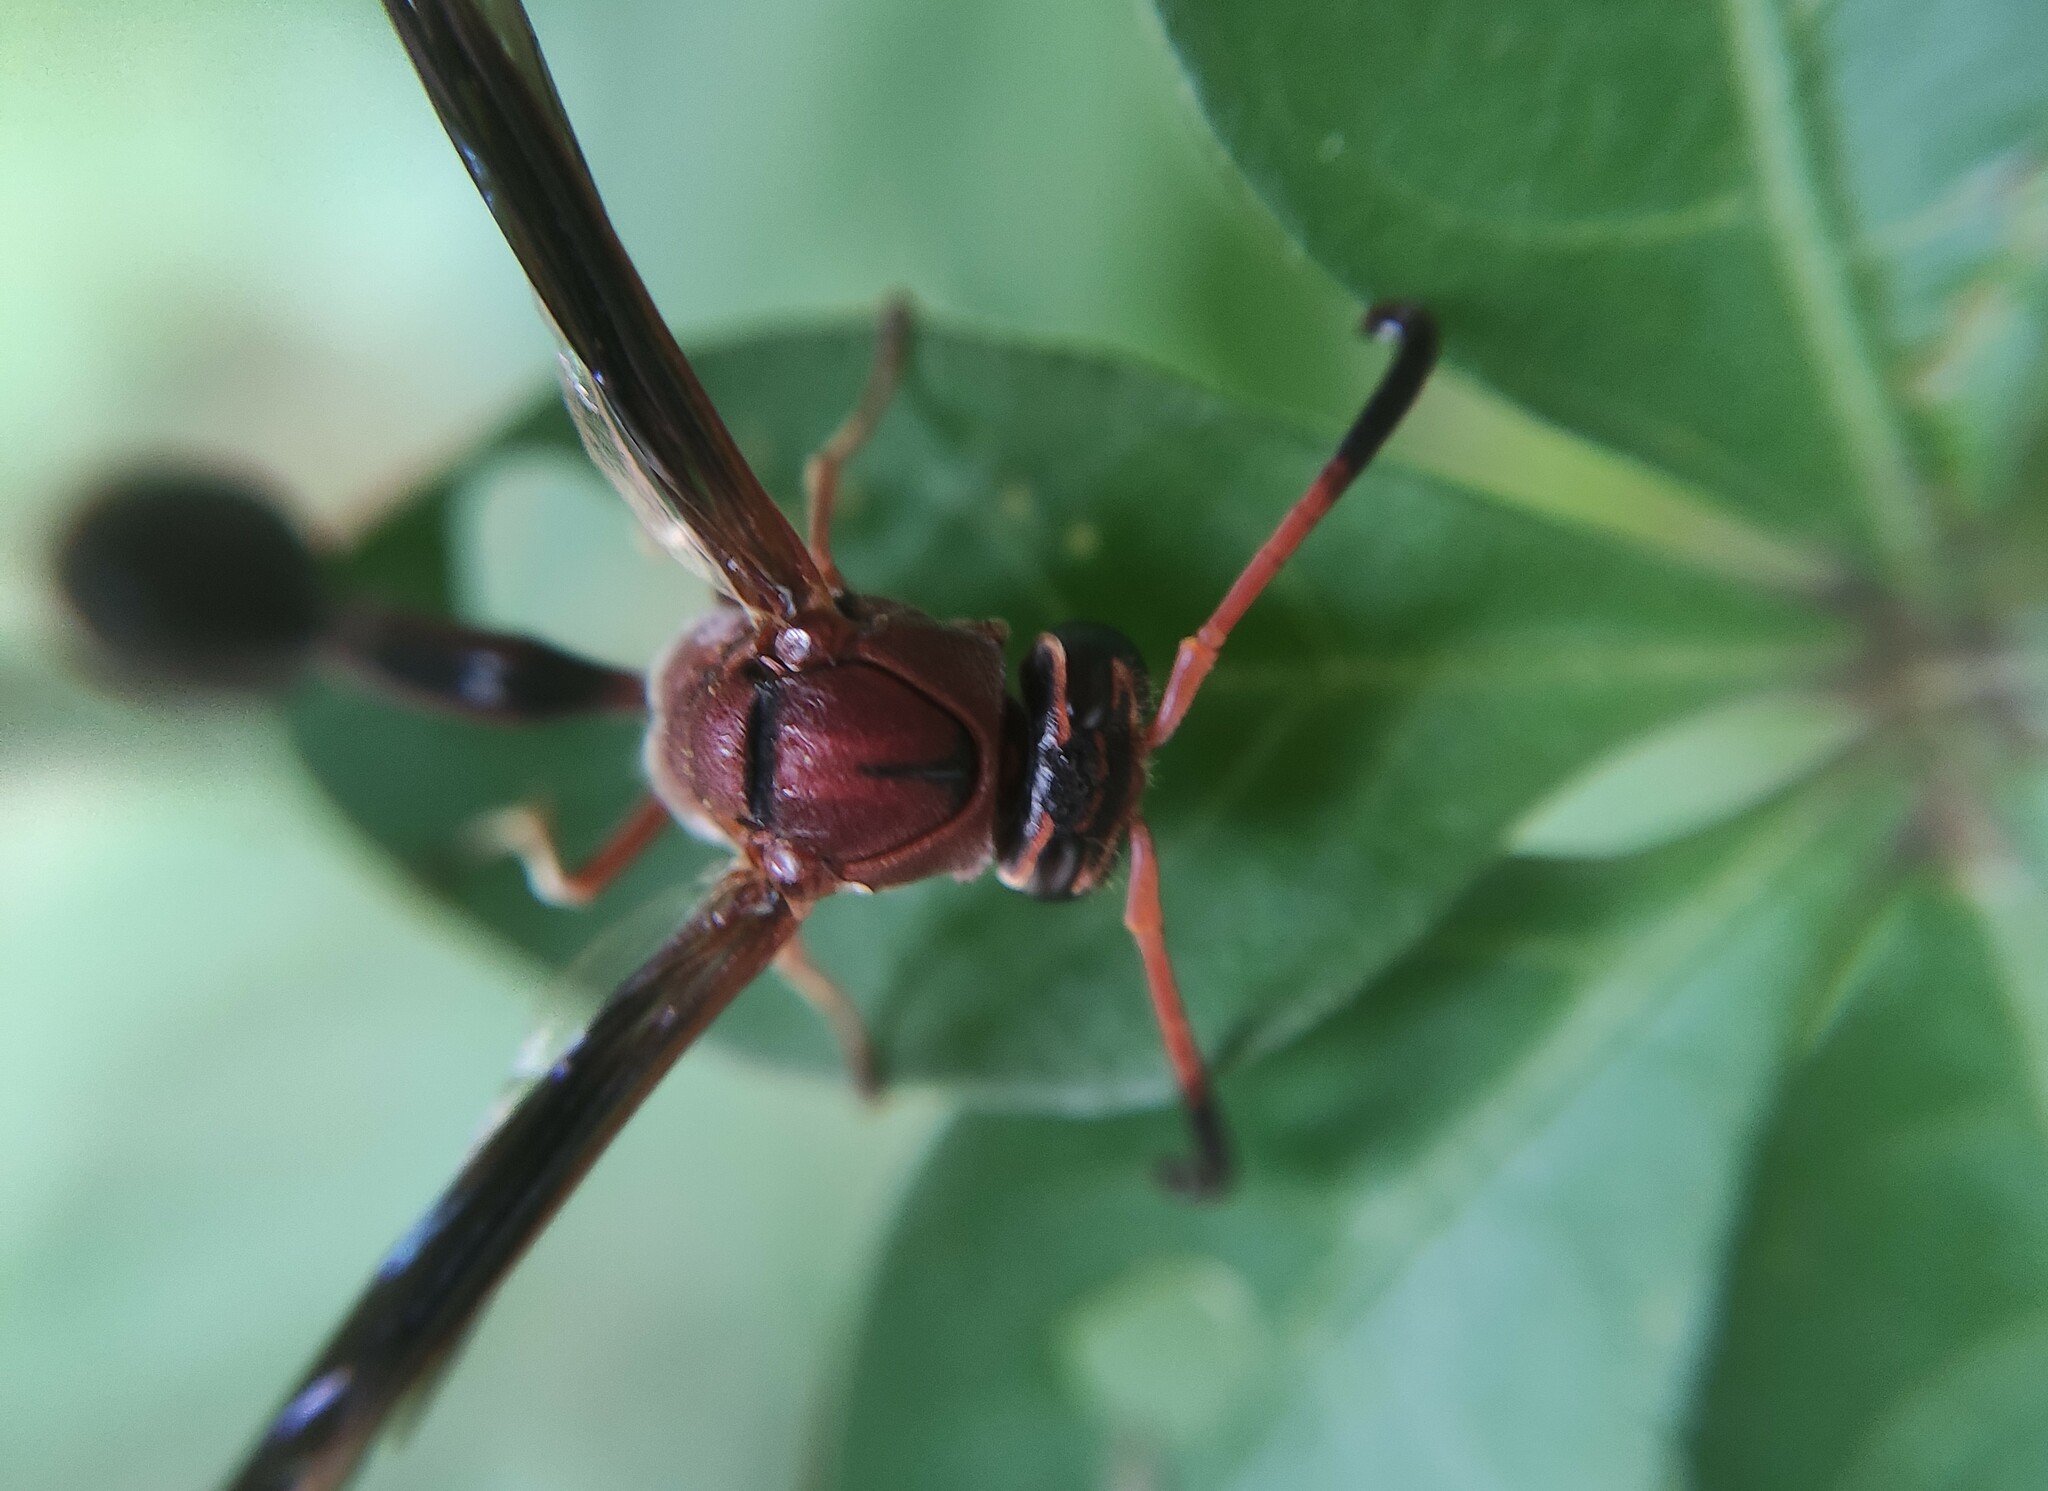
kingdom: Animalia
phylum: Arthropoda
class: Insecta
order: Hymenoptera
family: Eumenidae
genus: Zeta
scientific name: Zeta argillaceum
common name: Potter wasp
